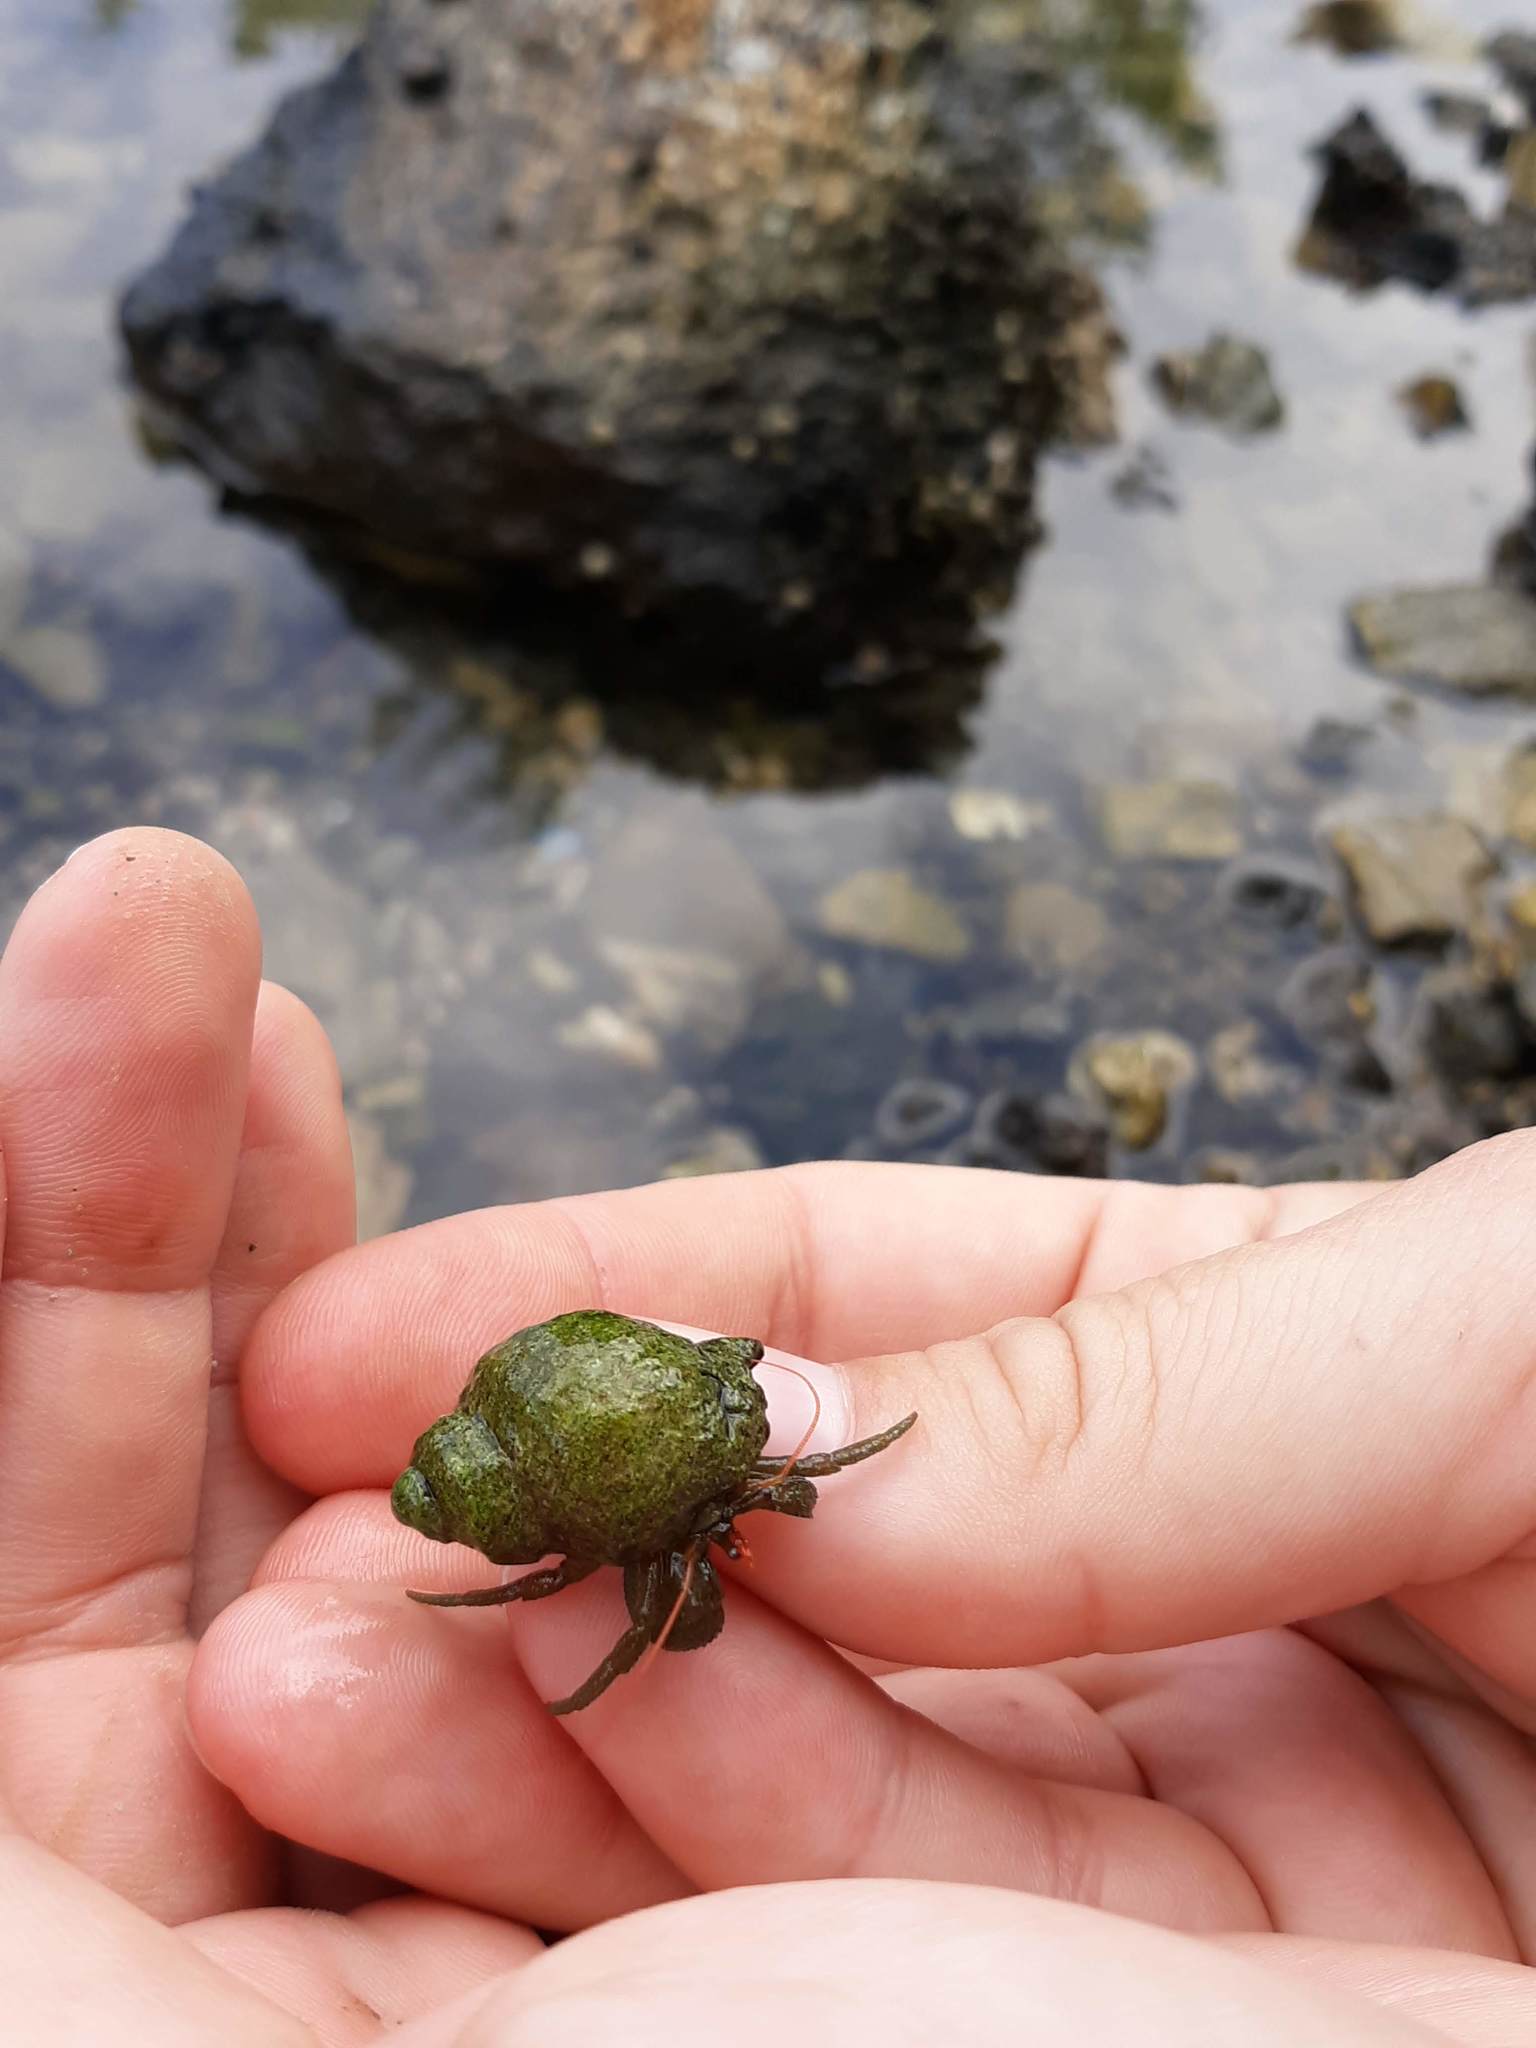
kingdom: Animalia
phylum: Arthropoda
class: Malacostraca
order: Decapoda
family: Paguridae
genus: Pagurus
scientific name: Pagurus granosimanus
